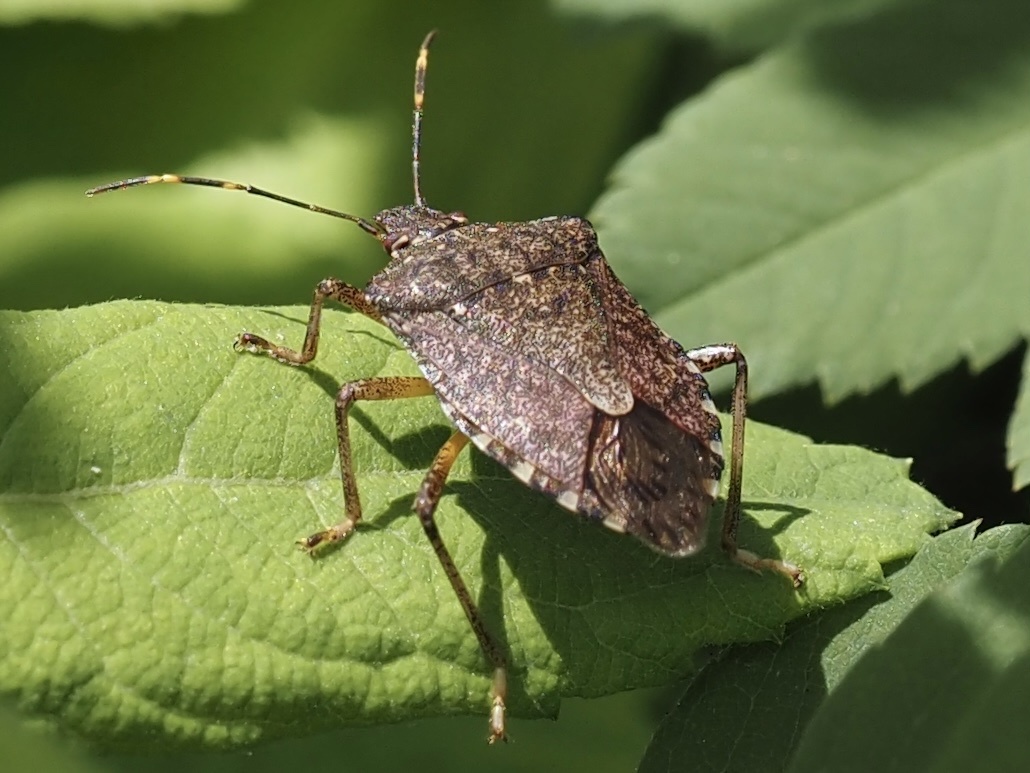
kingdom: Animalia
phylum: Arthropoda
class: Insecta
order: Hemiptera
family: Pentatomidae
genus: Halyomorpha
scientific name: Halyomorpha halys
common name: Brown marmorated stink bug
